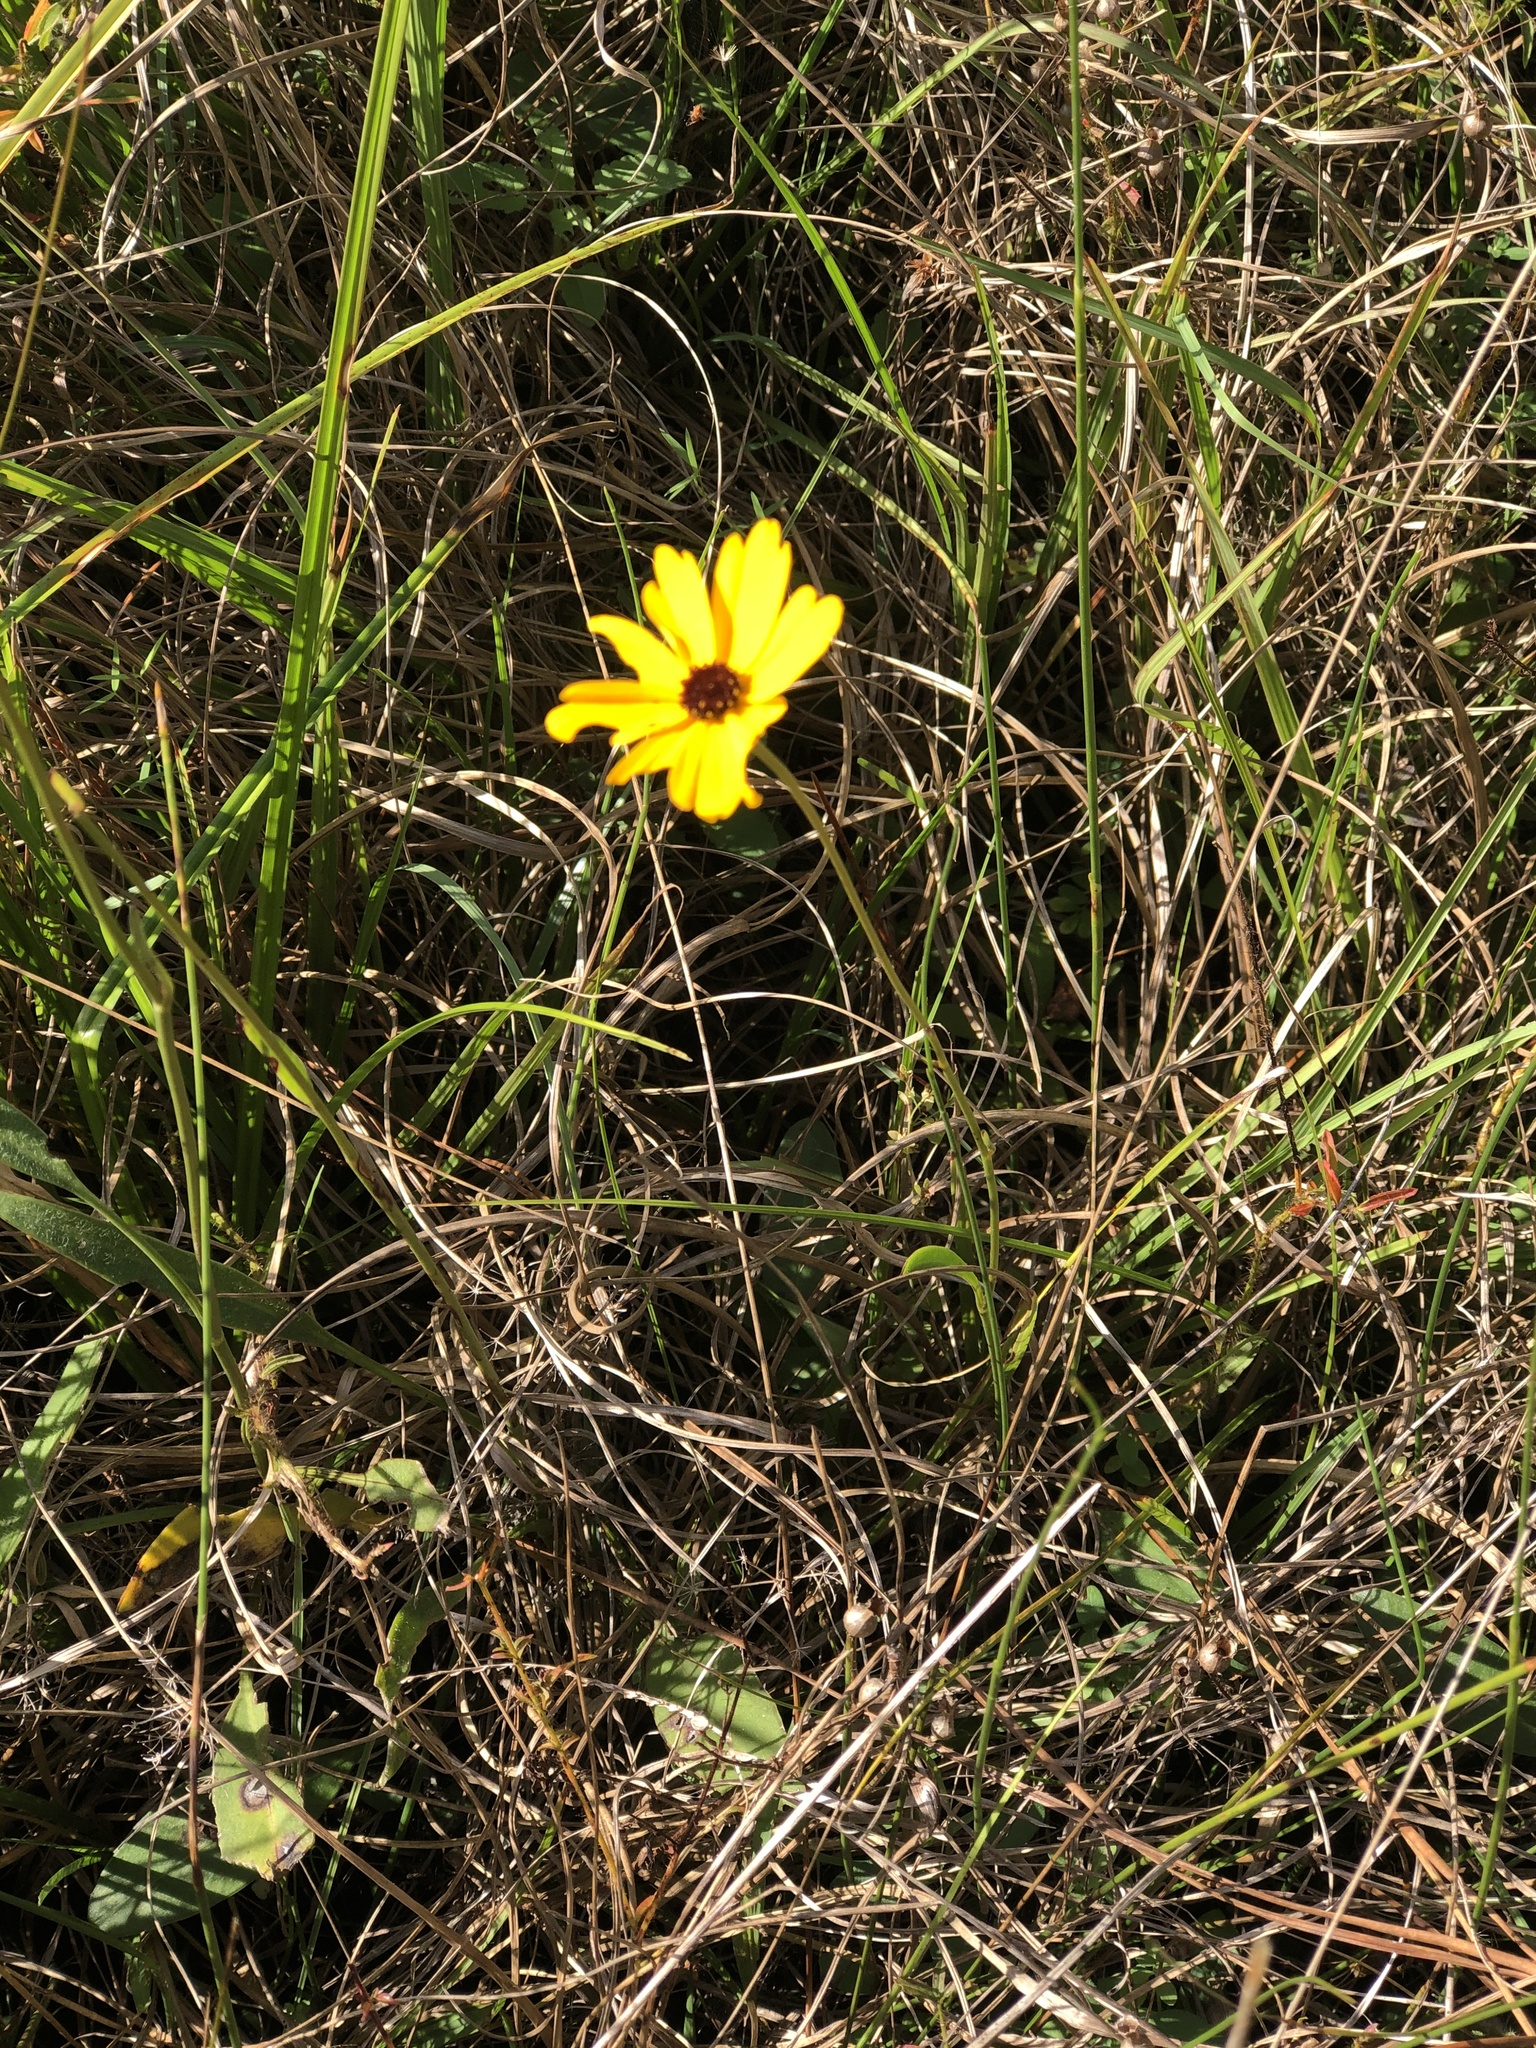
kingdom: Plantae
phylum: Tracheophyta
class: Magnoliopsida
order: Asterales
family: Asteraceae
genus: Coreopsis
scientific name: Coreopsis leavenworthii
